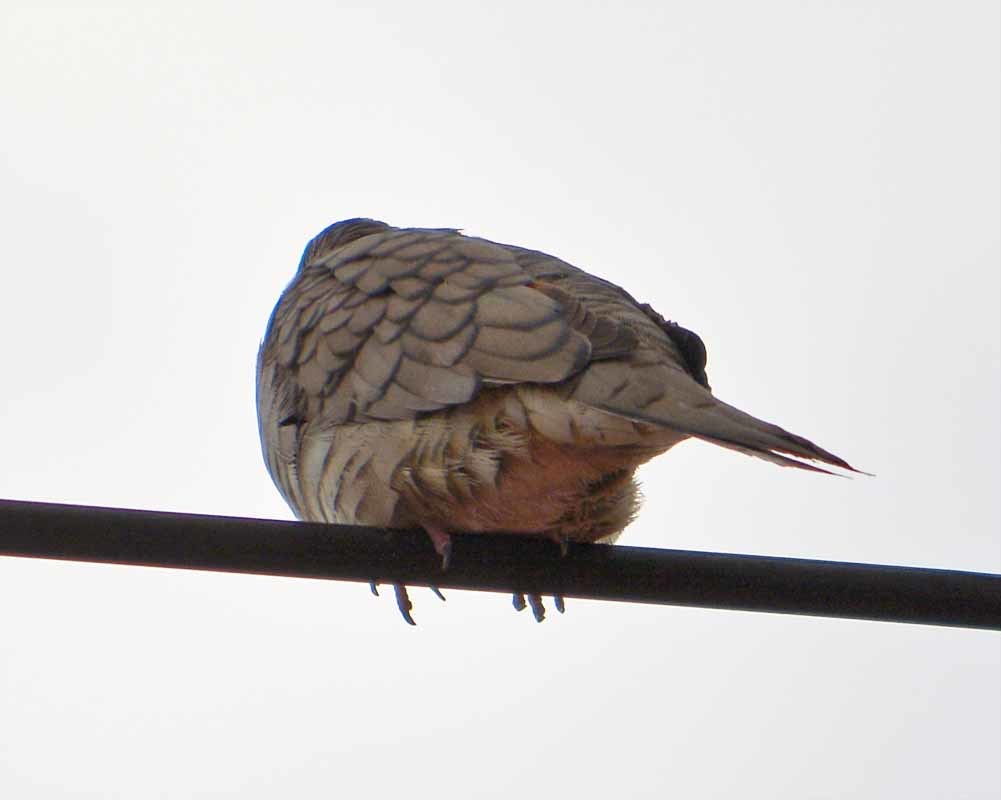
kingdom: Animalia
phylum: Chordata
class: Aves
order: Columbiformes
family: Columbidae
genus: Columbina
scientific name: Columbina inca
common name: Inca dove
